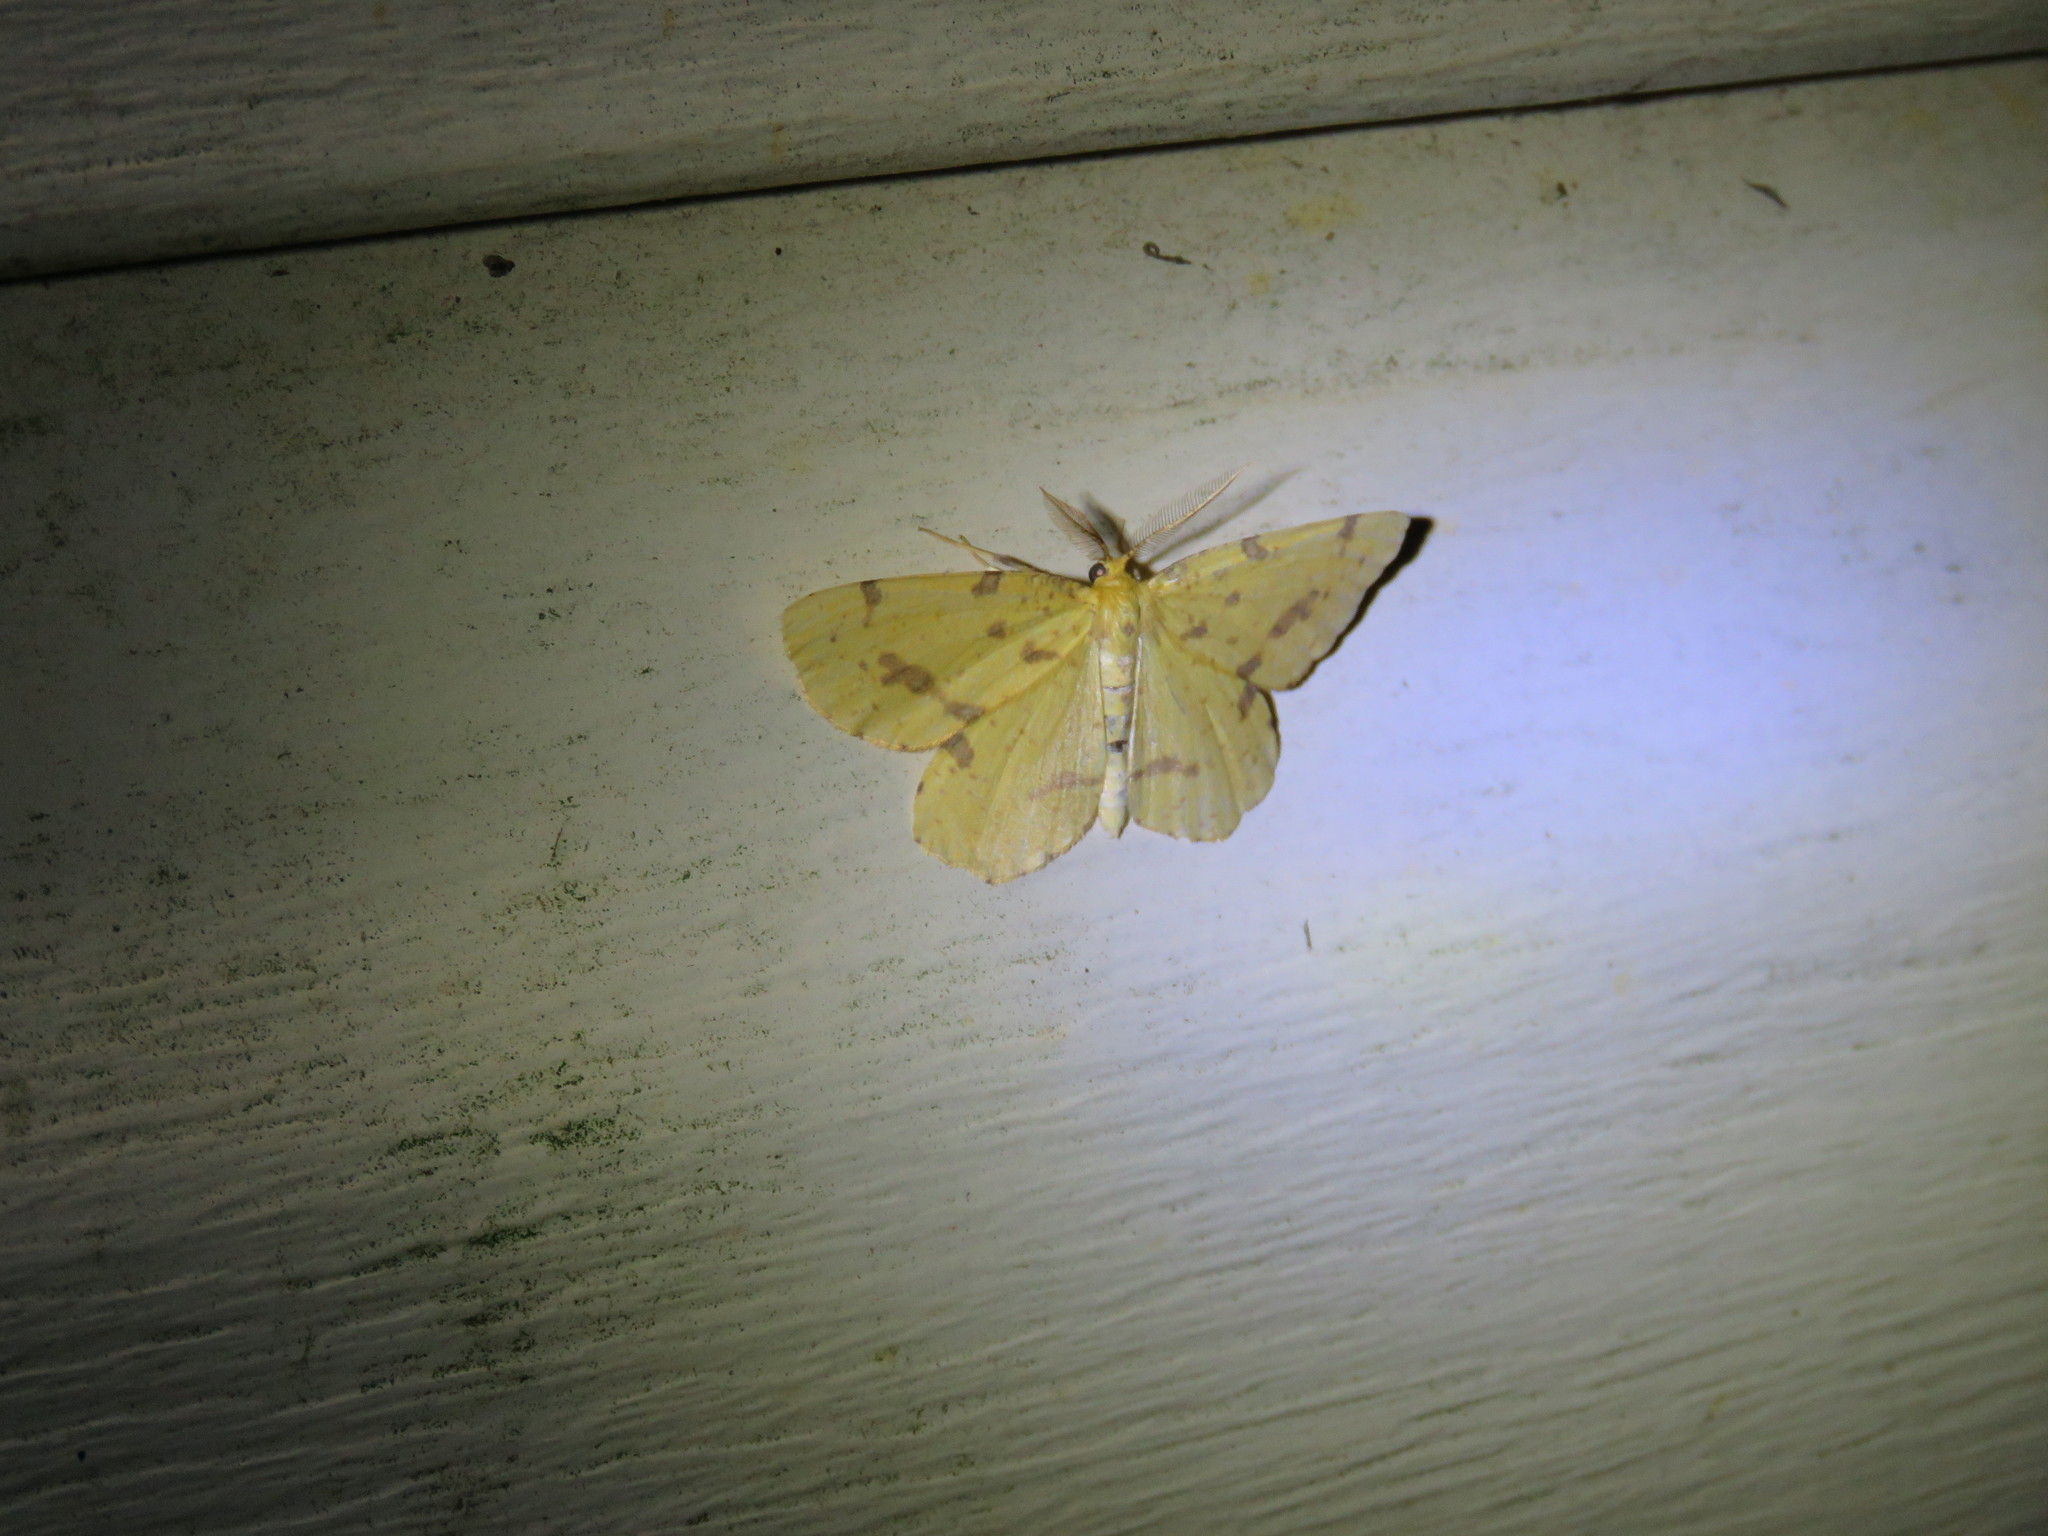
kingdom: Animalia
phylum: Arthropoda
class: Insecta
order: Lepidoptera
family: Geometridae
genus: Xanthotype
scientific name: Xanthotype
